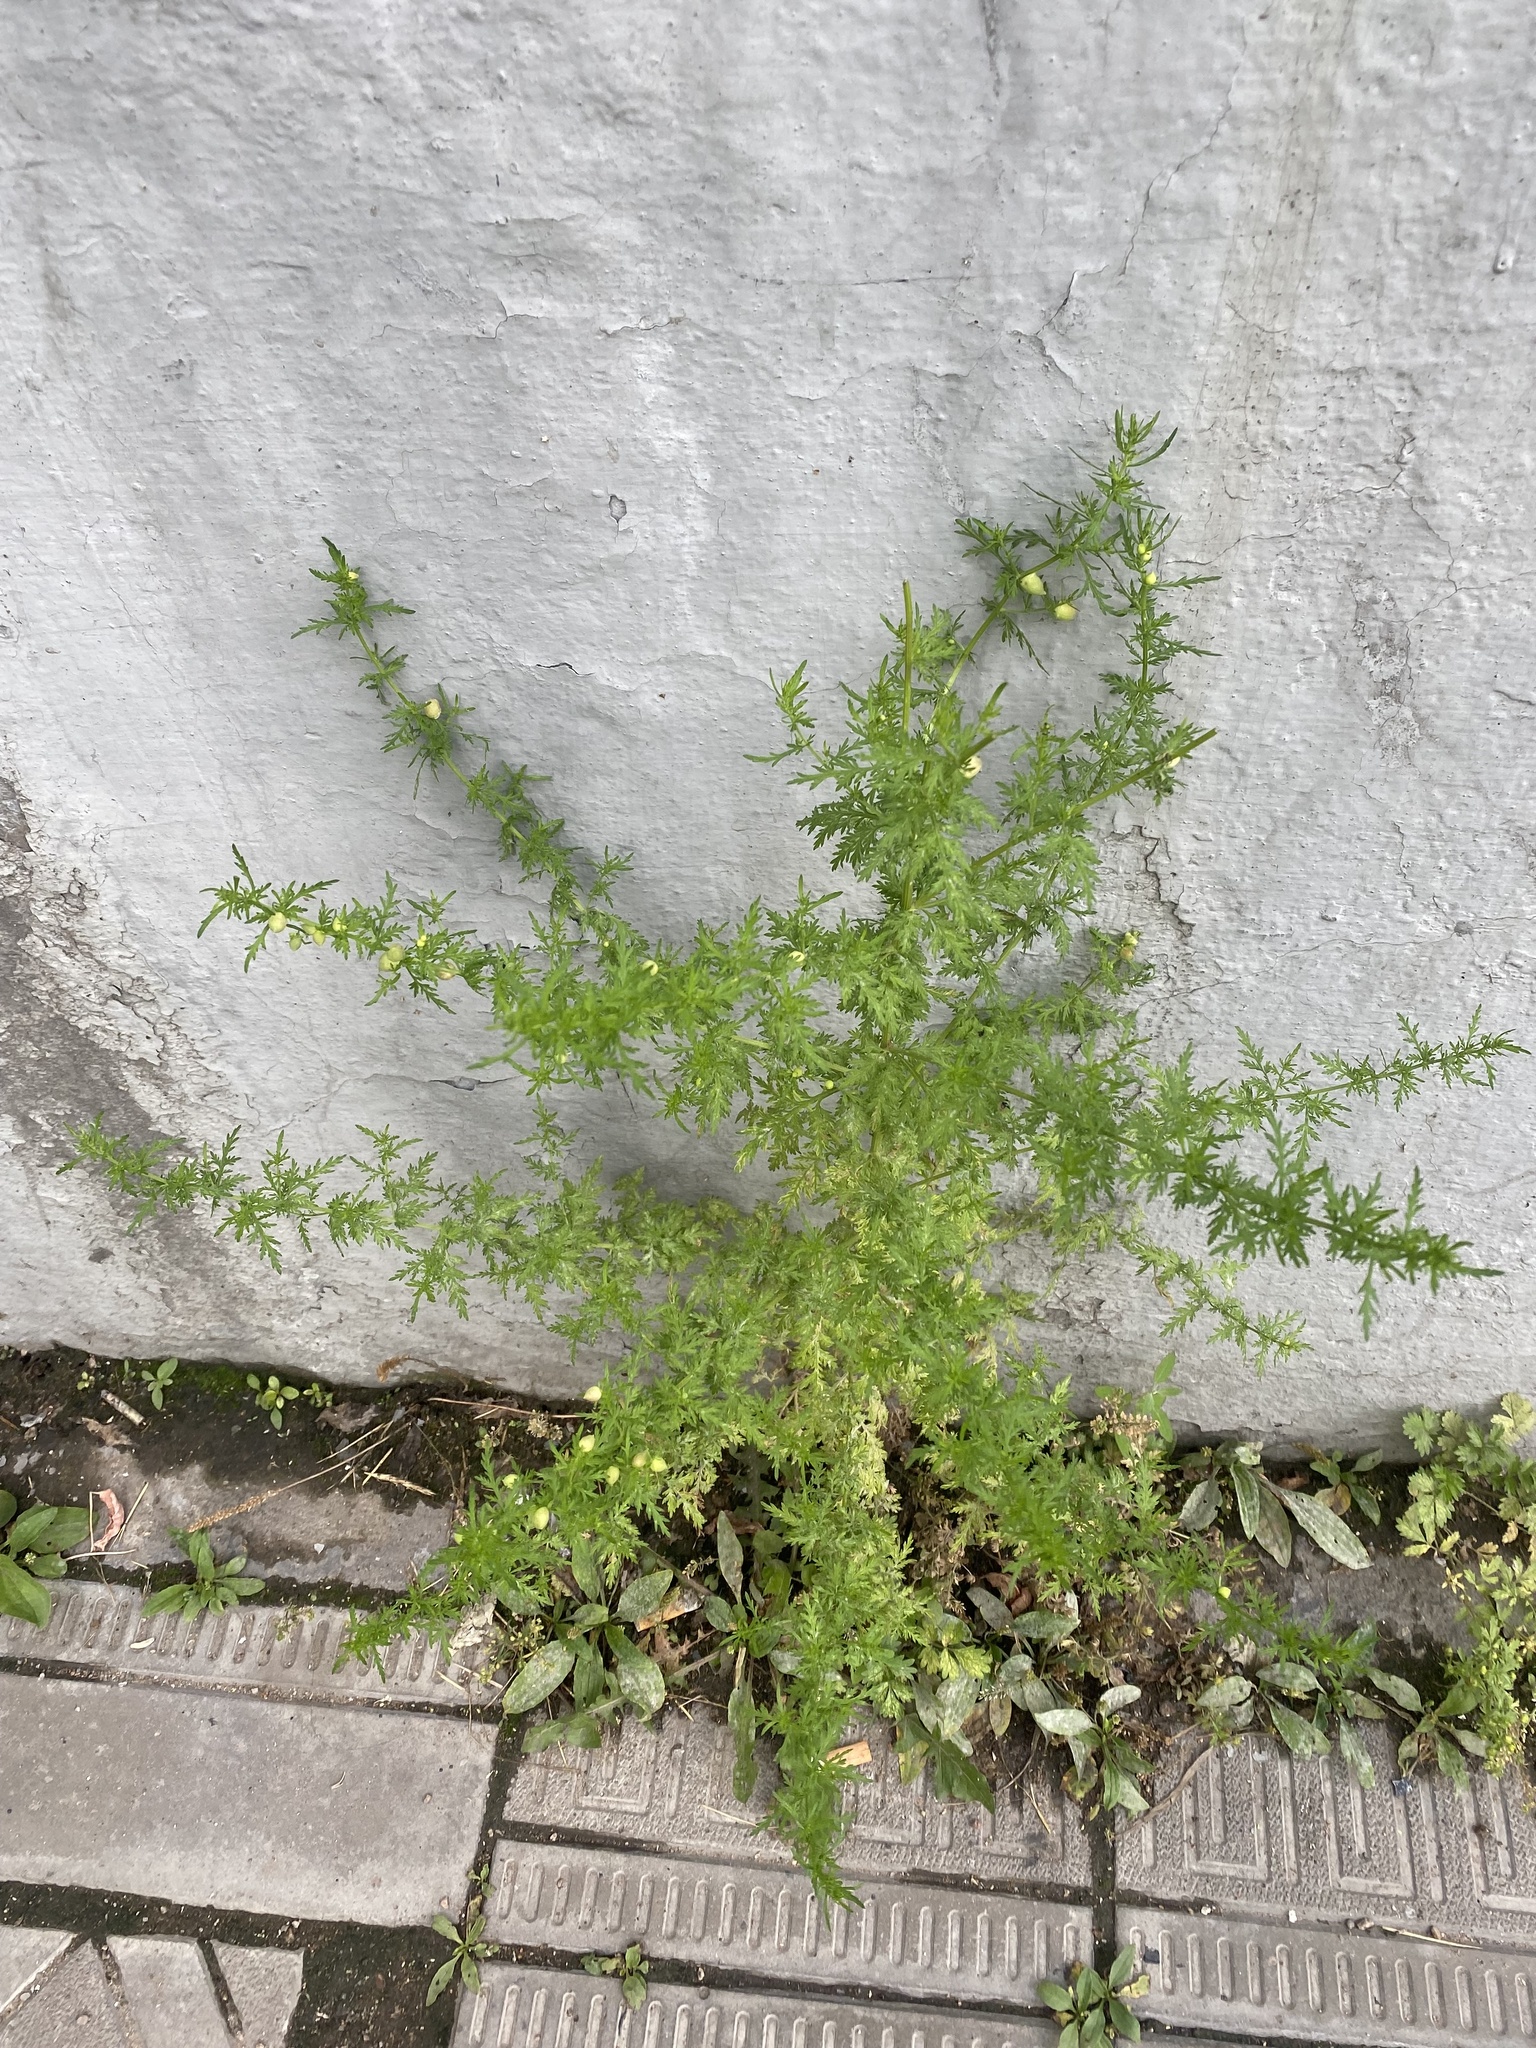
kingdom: Plantae
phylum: Tracheophyta
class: Magnoliopsida
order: Asterales
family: Asteraceae
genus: Artemisia
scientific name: Artemisia annua
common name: Sweet sagewort
